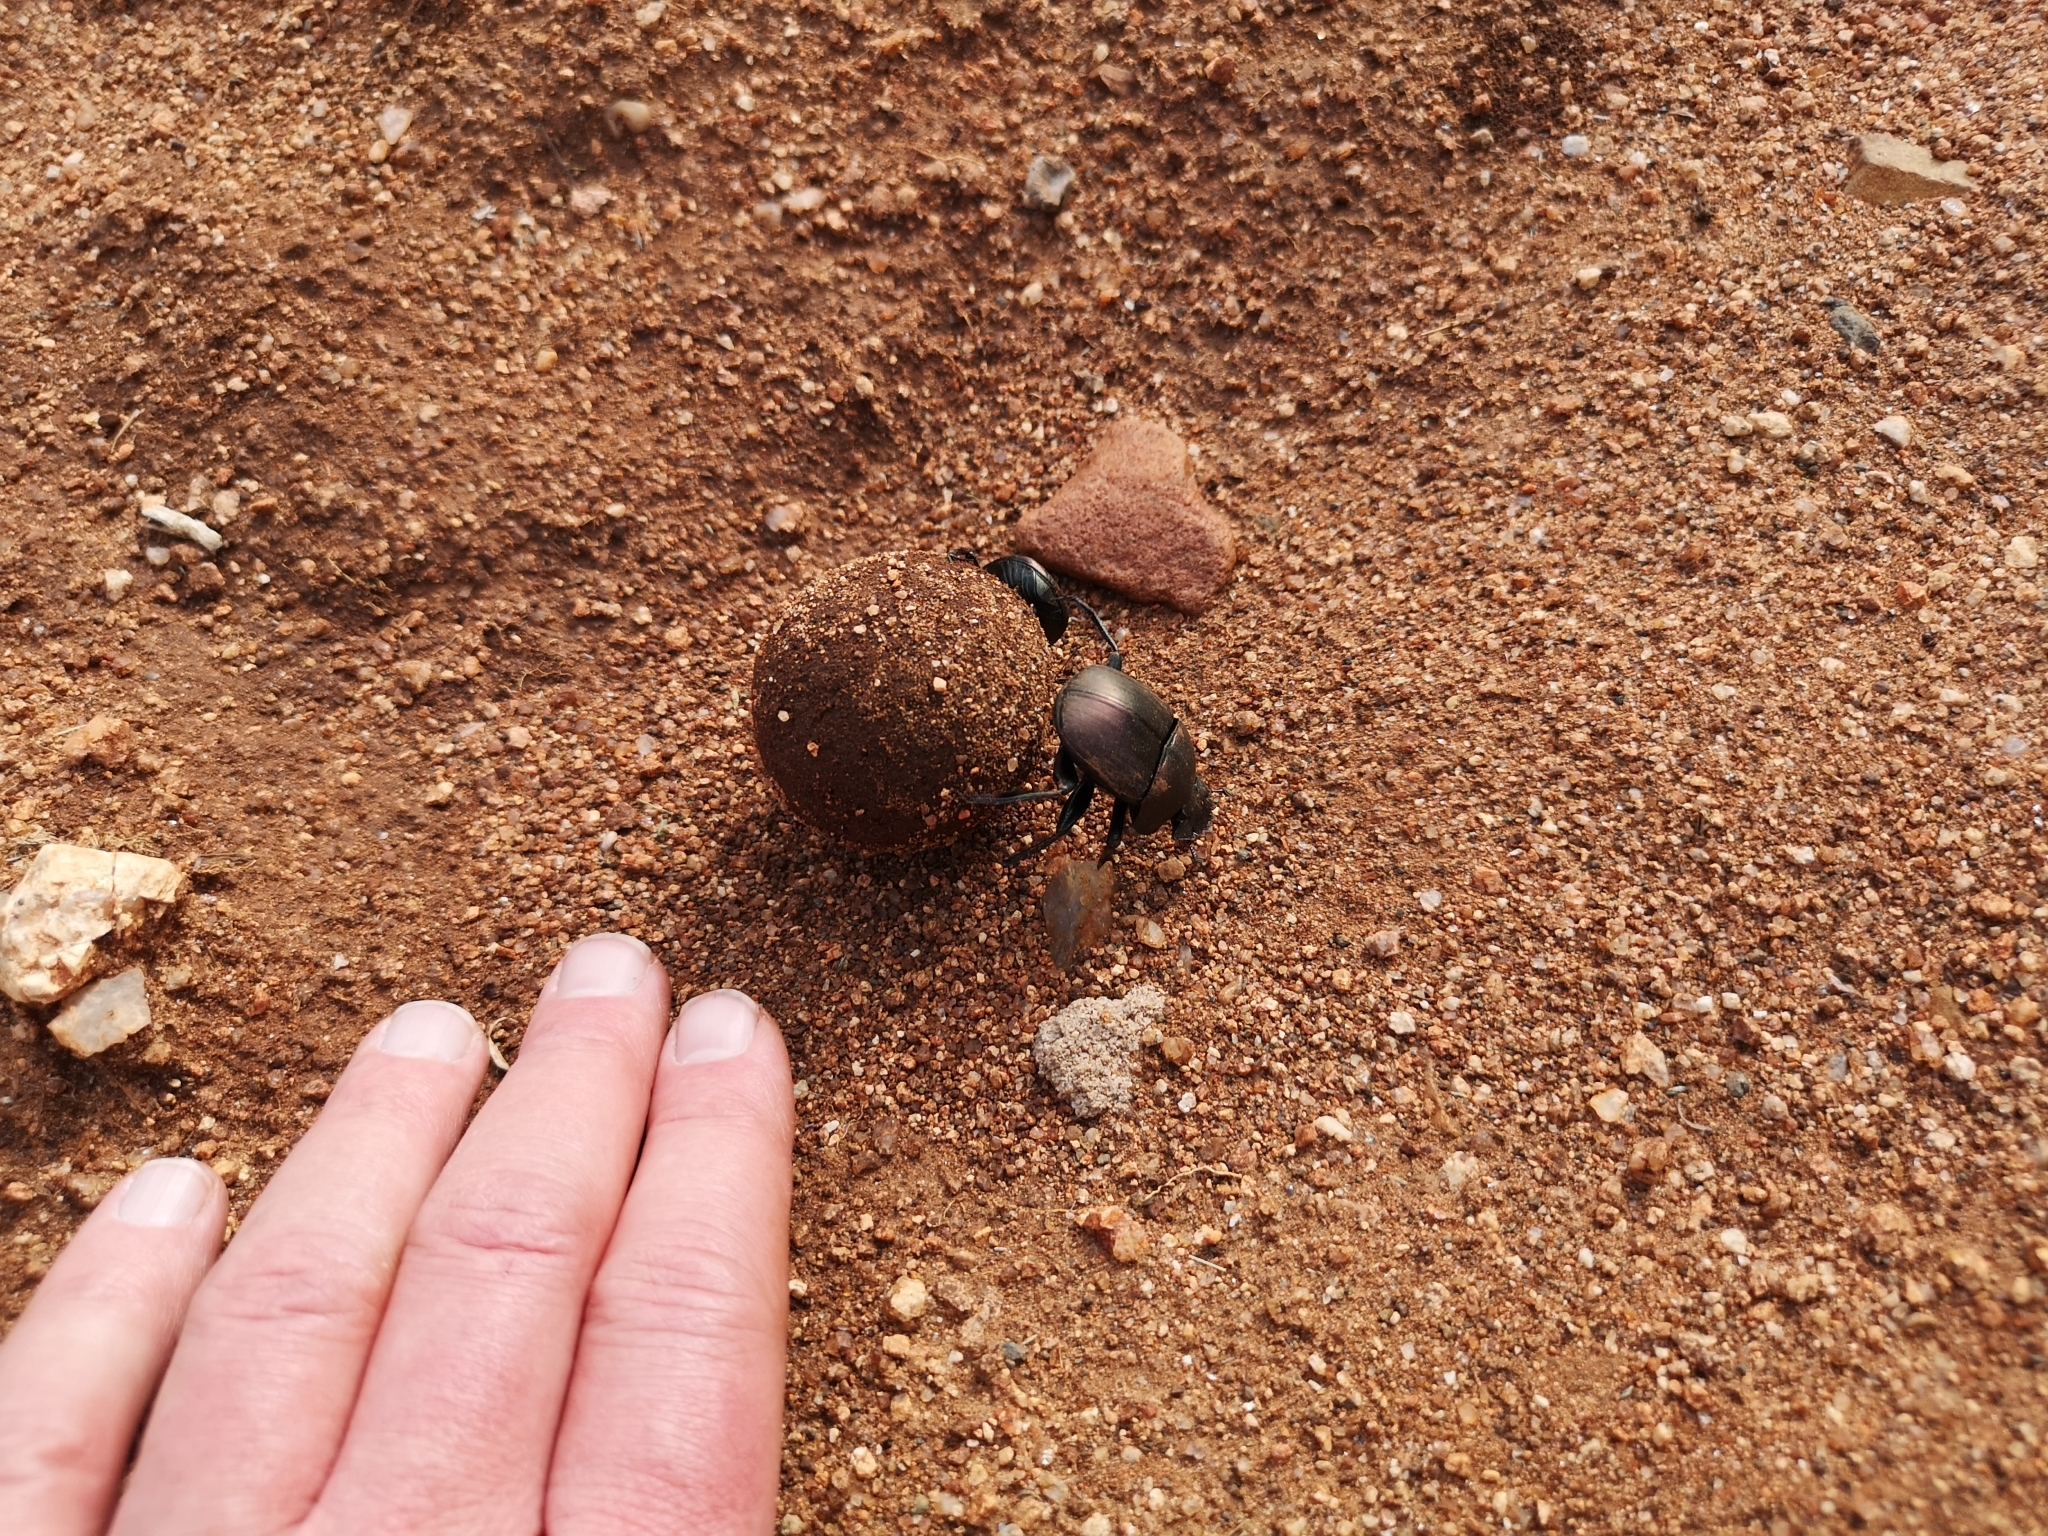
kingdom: Animalia
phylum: Arthropoda
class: Insecta
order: Coleoptera
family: Scarabaeidae
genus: Kheper
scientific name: Kheper nigroaeneus
